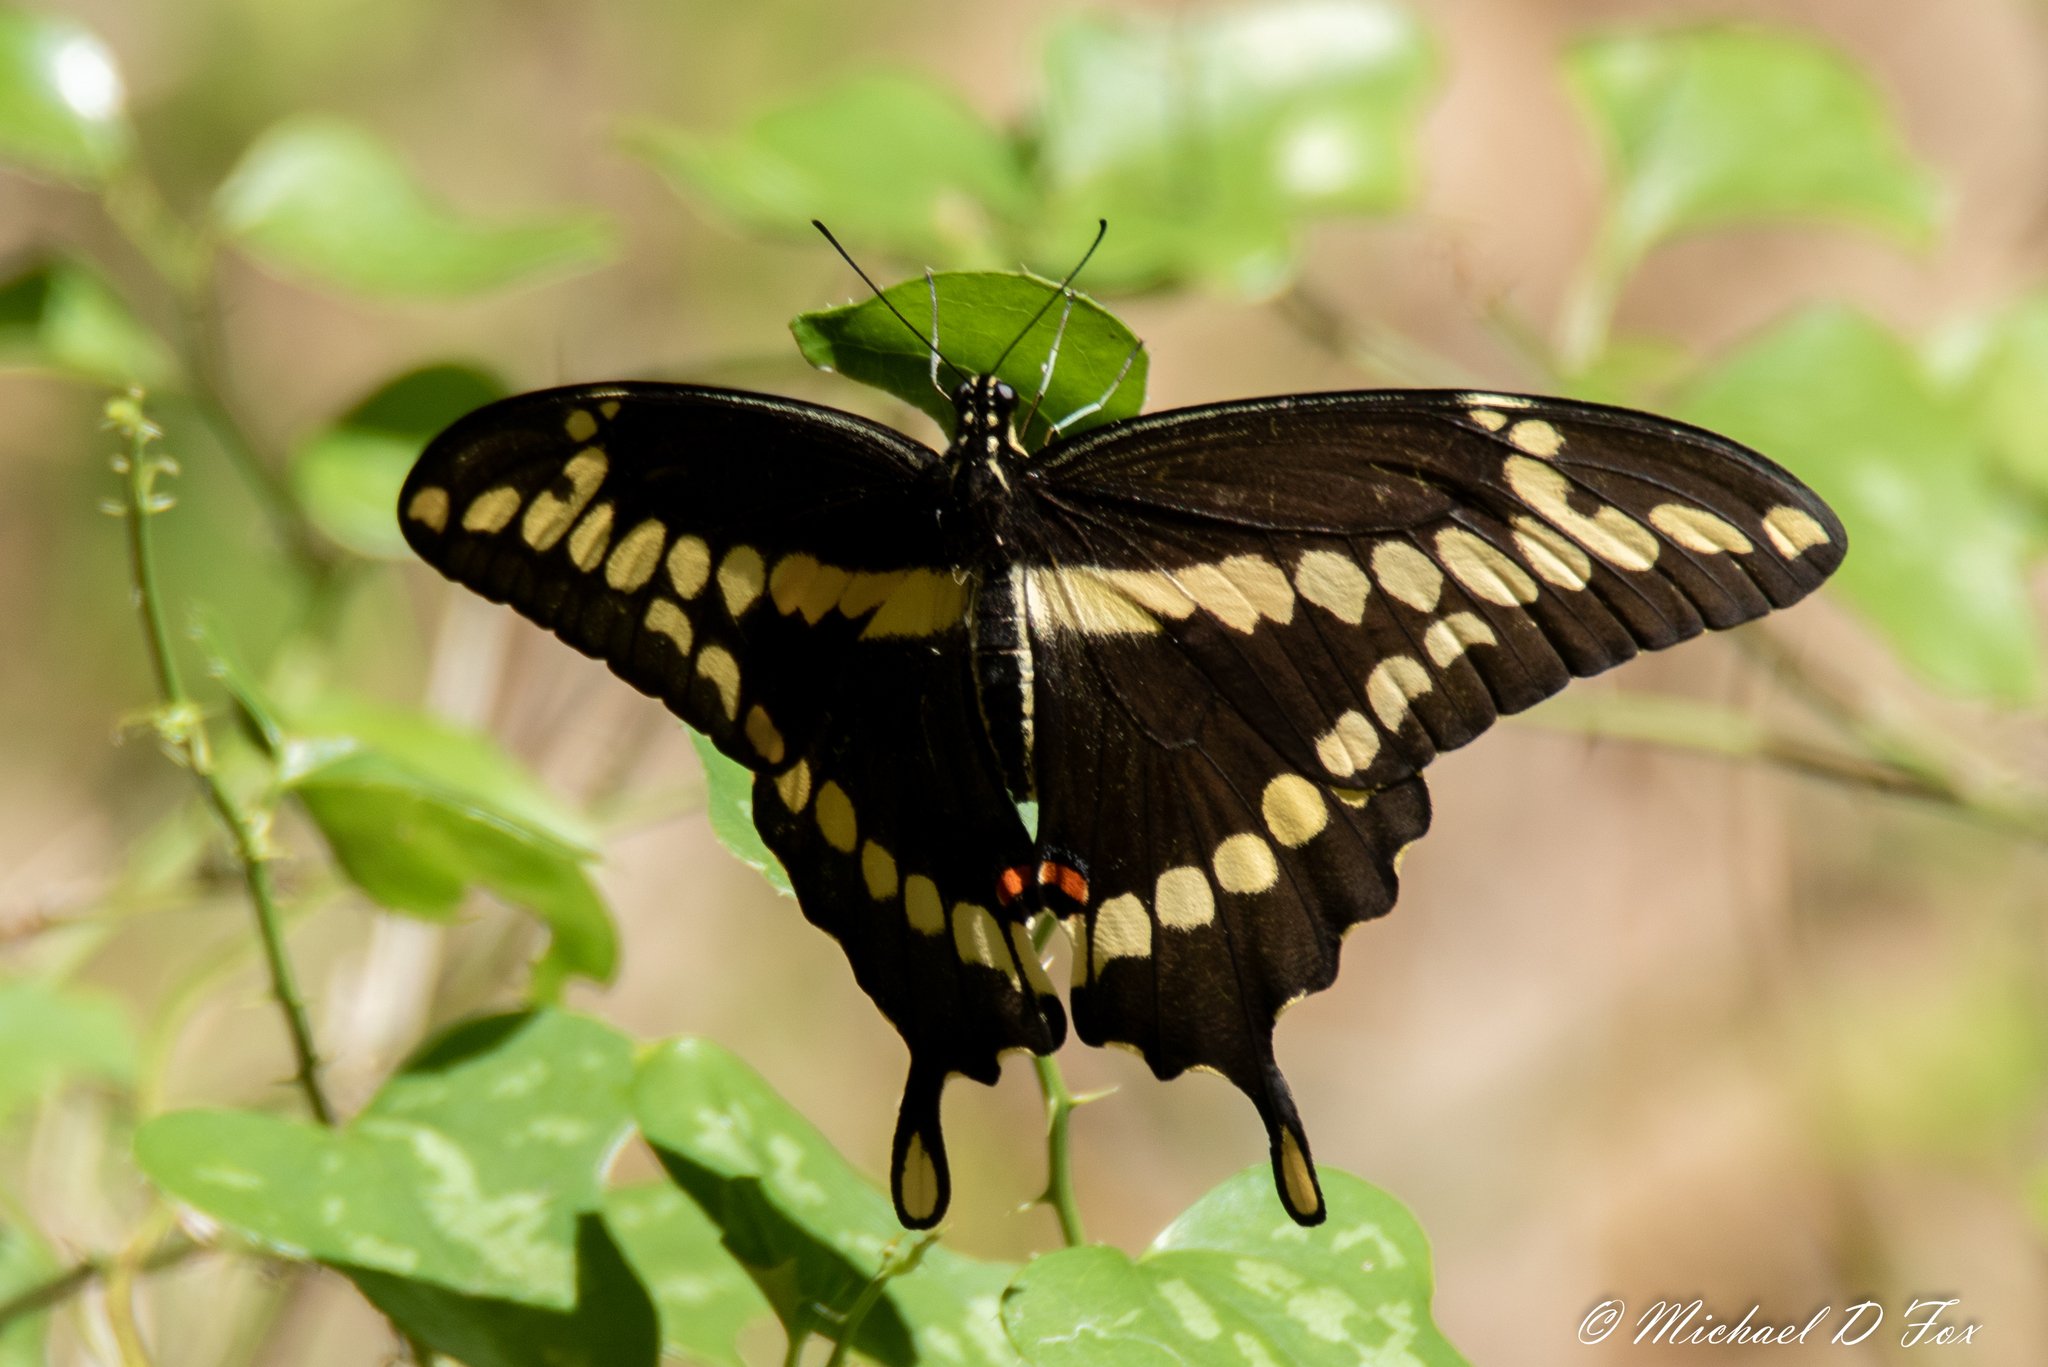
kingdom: Animalia
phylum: Arthropoda
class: Insecta
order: Lepidoptera
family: Papilionidae
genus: Papilio
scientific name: Papilio cresphontes
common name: Giant swallowtail
